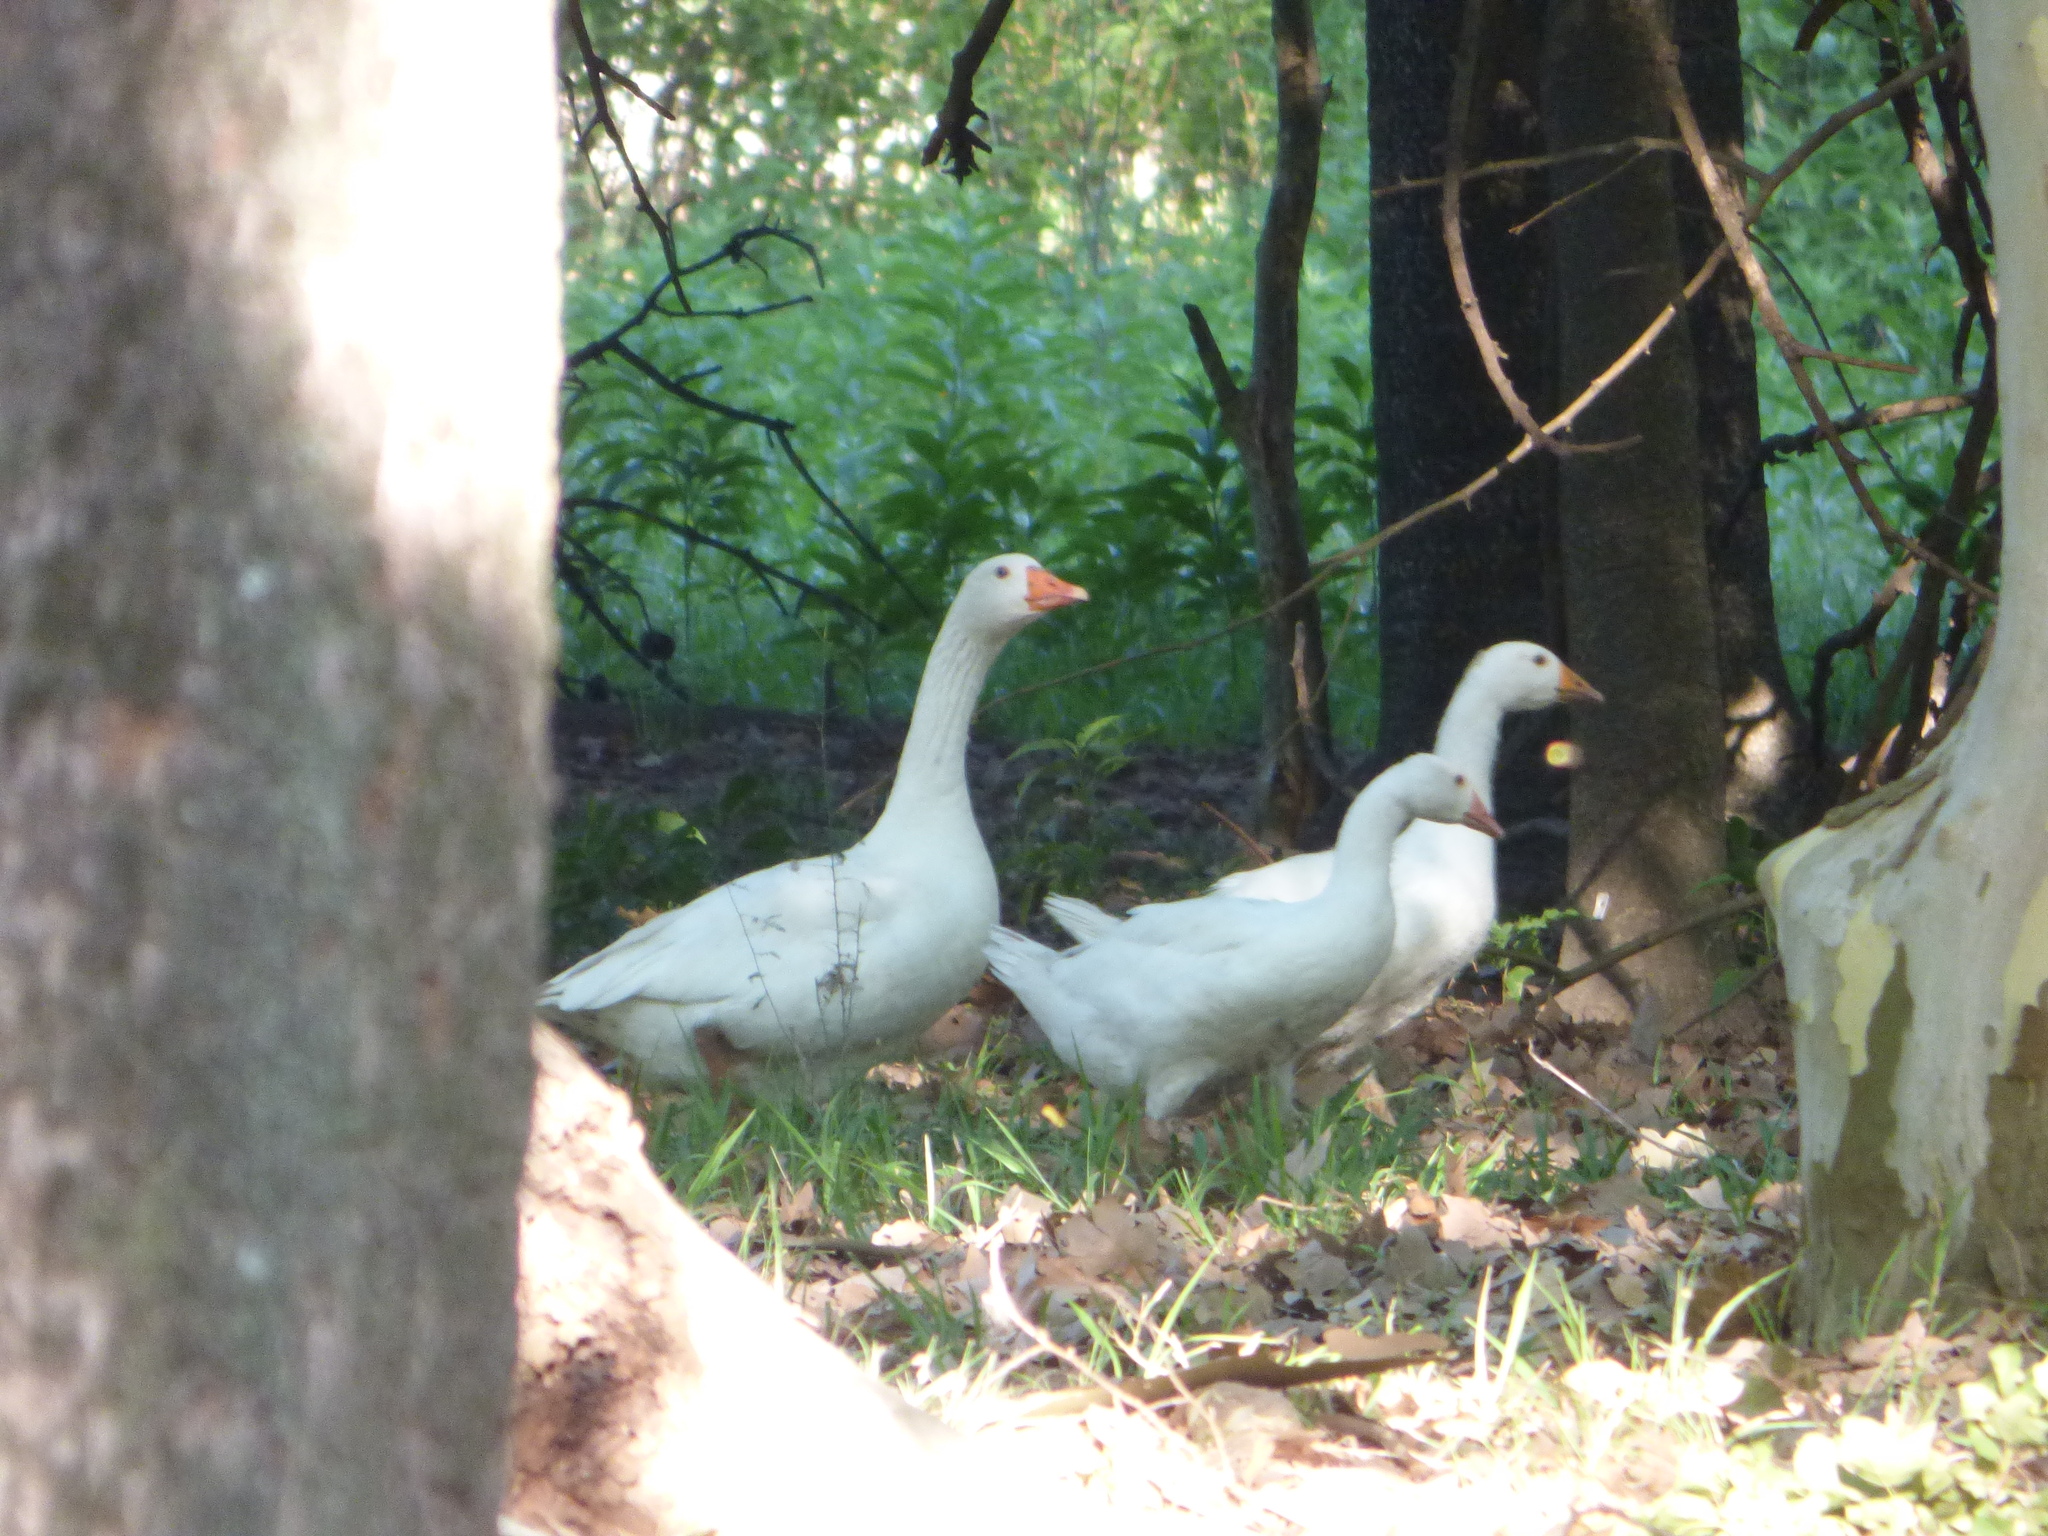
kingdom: Animalia
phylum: Chordata
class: Aves
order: Anseriformes
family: Anatidae
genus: Anser
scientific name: Anser anser
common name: Greylag goose
